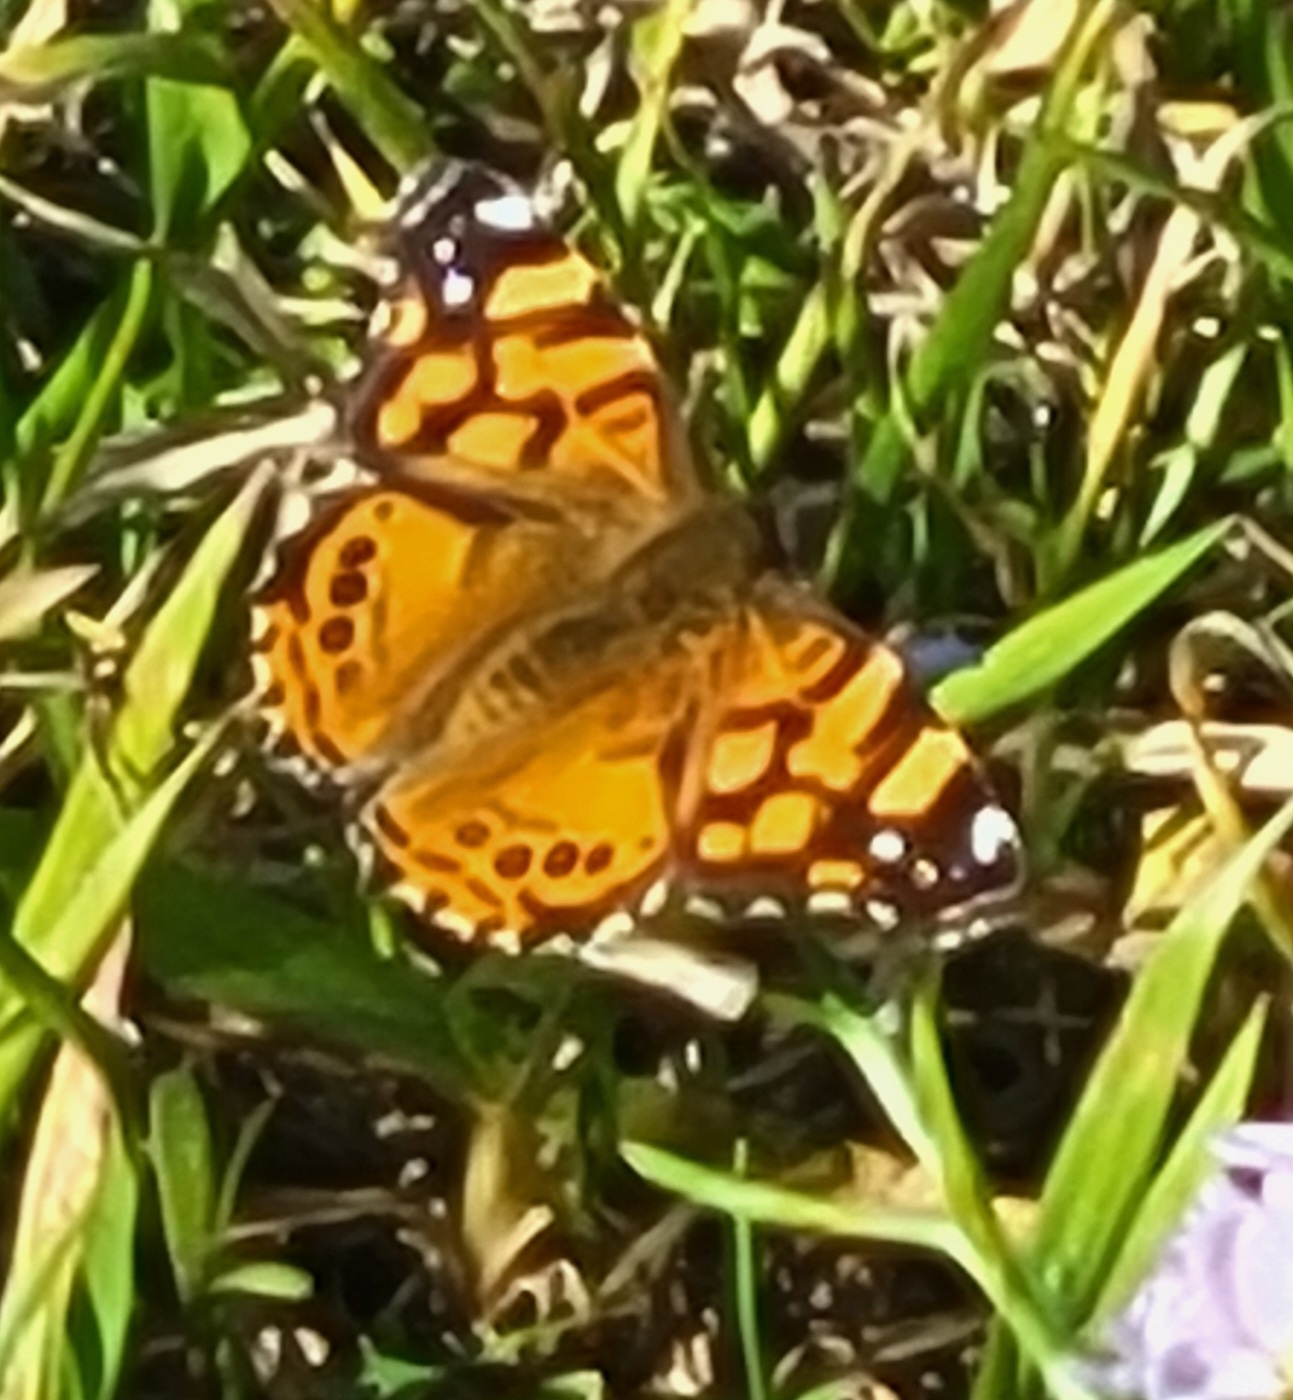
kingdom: Animalia
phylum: Arthropoda
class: Insecta
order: Lepidoptera
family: Nymphalidae
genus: Vanessa
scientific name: Vanessa annabella
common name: West coast lady
